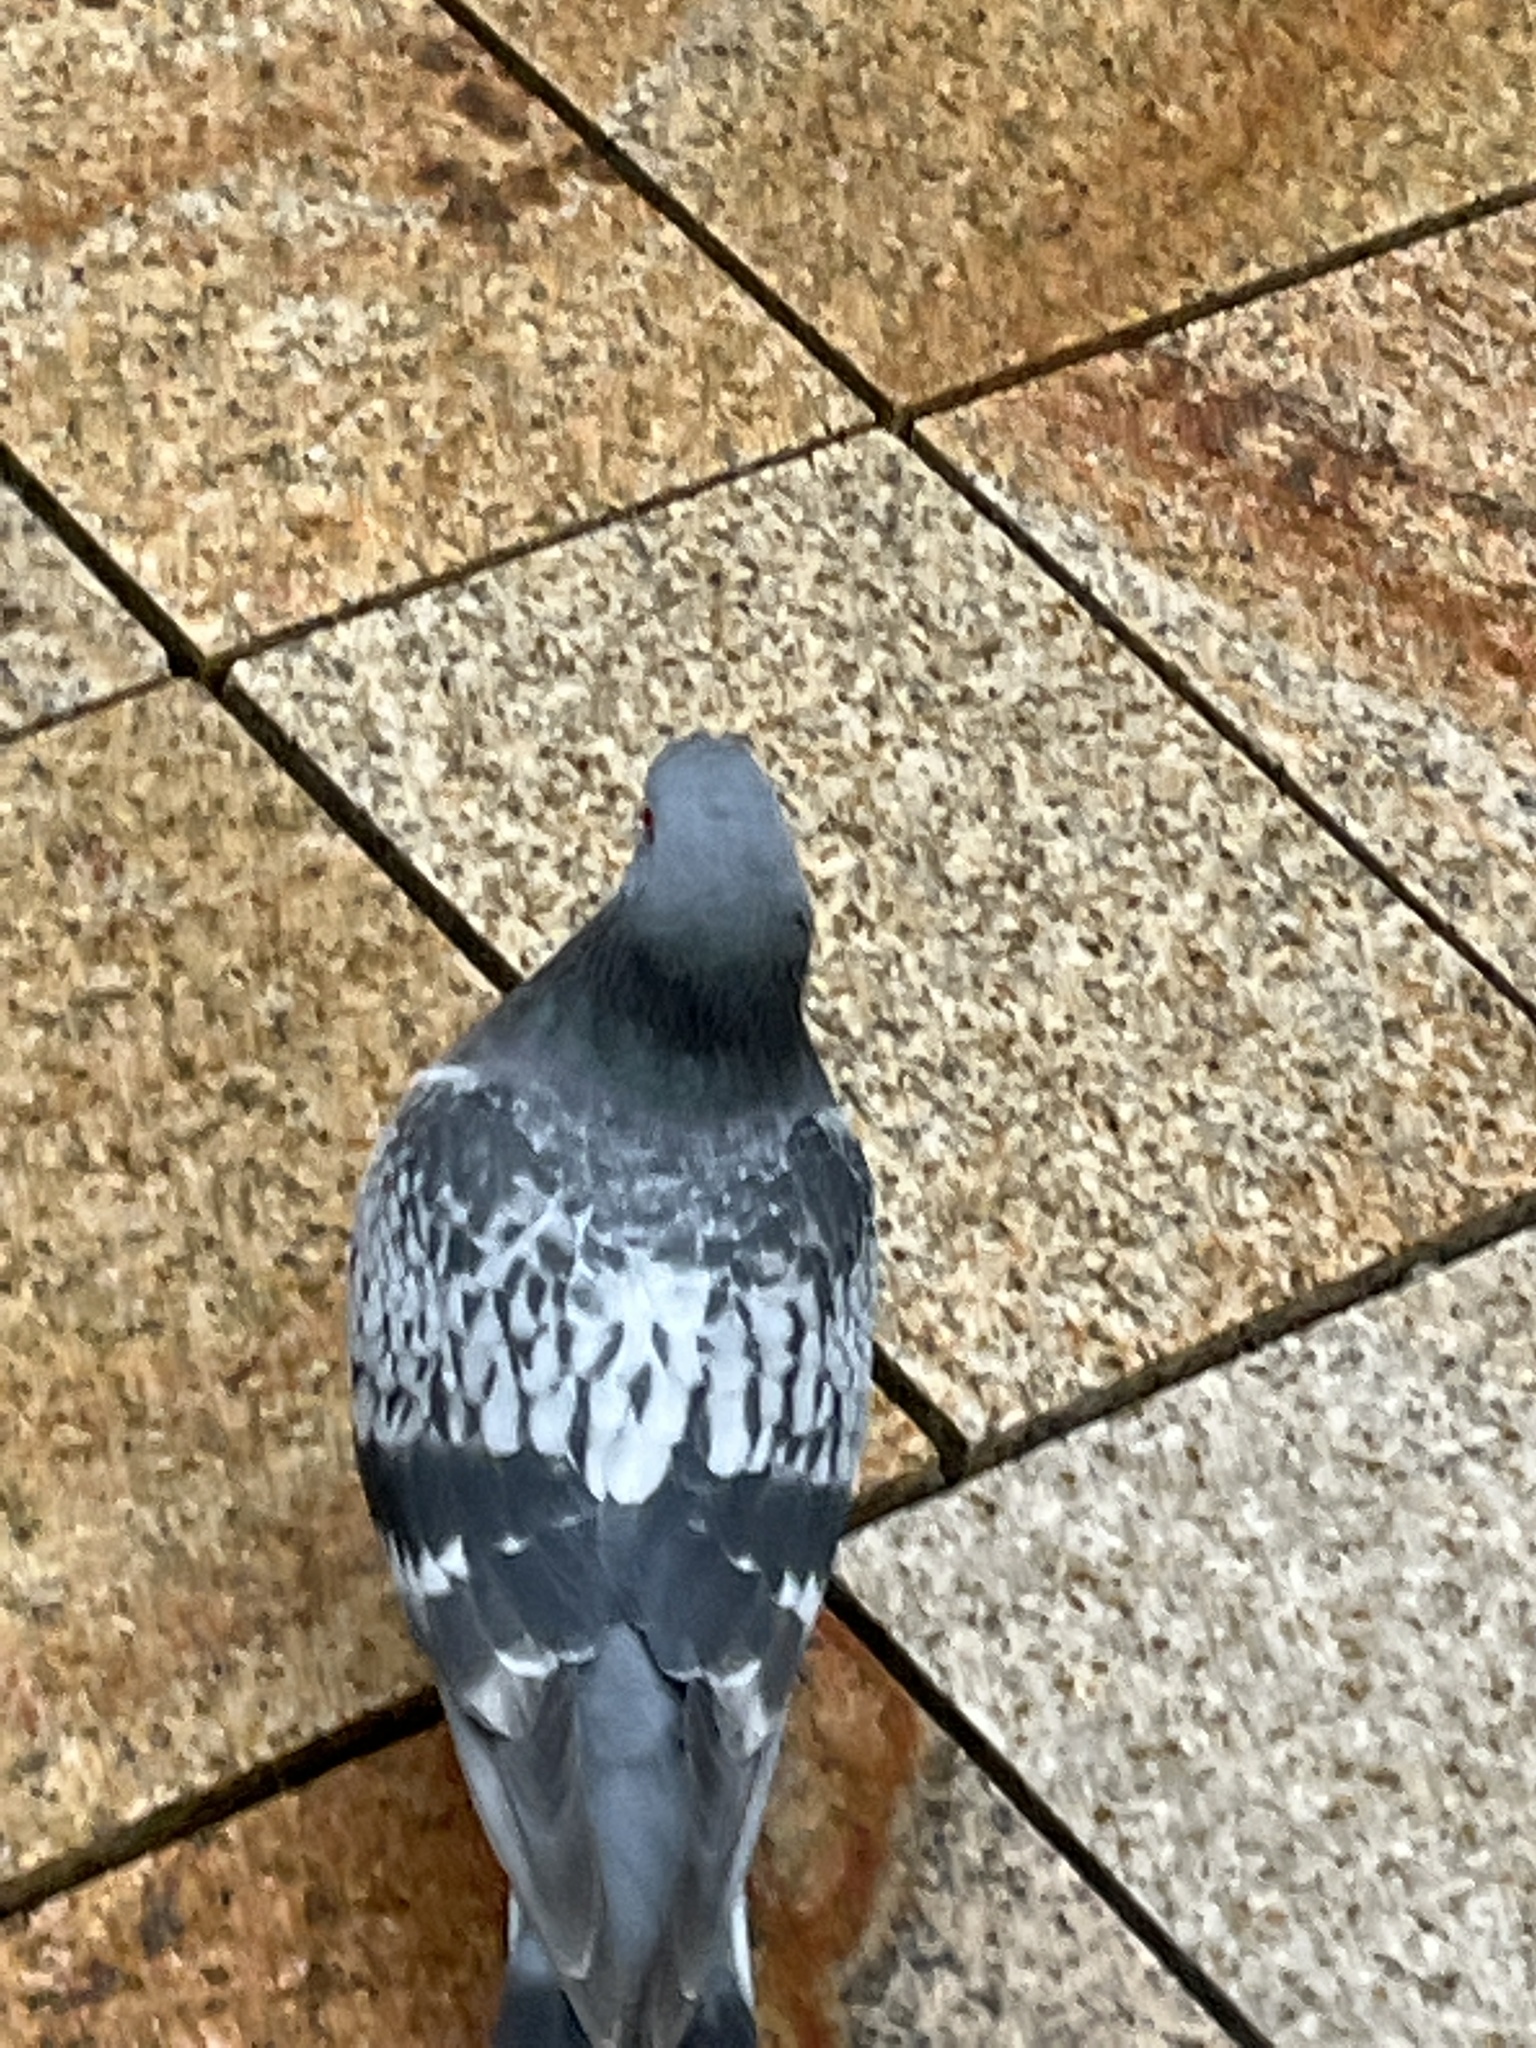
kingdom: Animalia
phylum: Chordata
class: Aves
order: Columbiformes
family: Columbidae
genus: Columba
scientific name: Columba livia
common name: Rock pigeon
